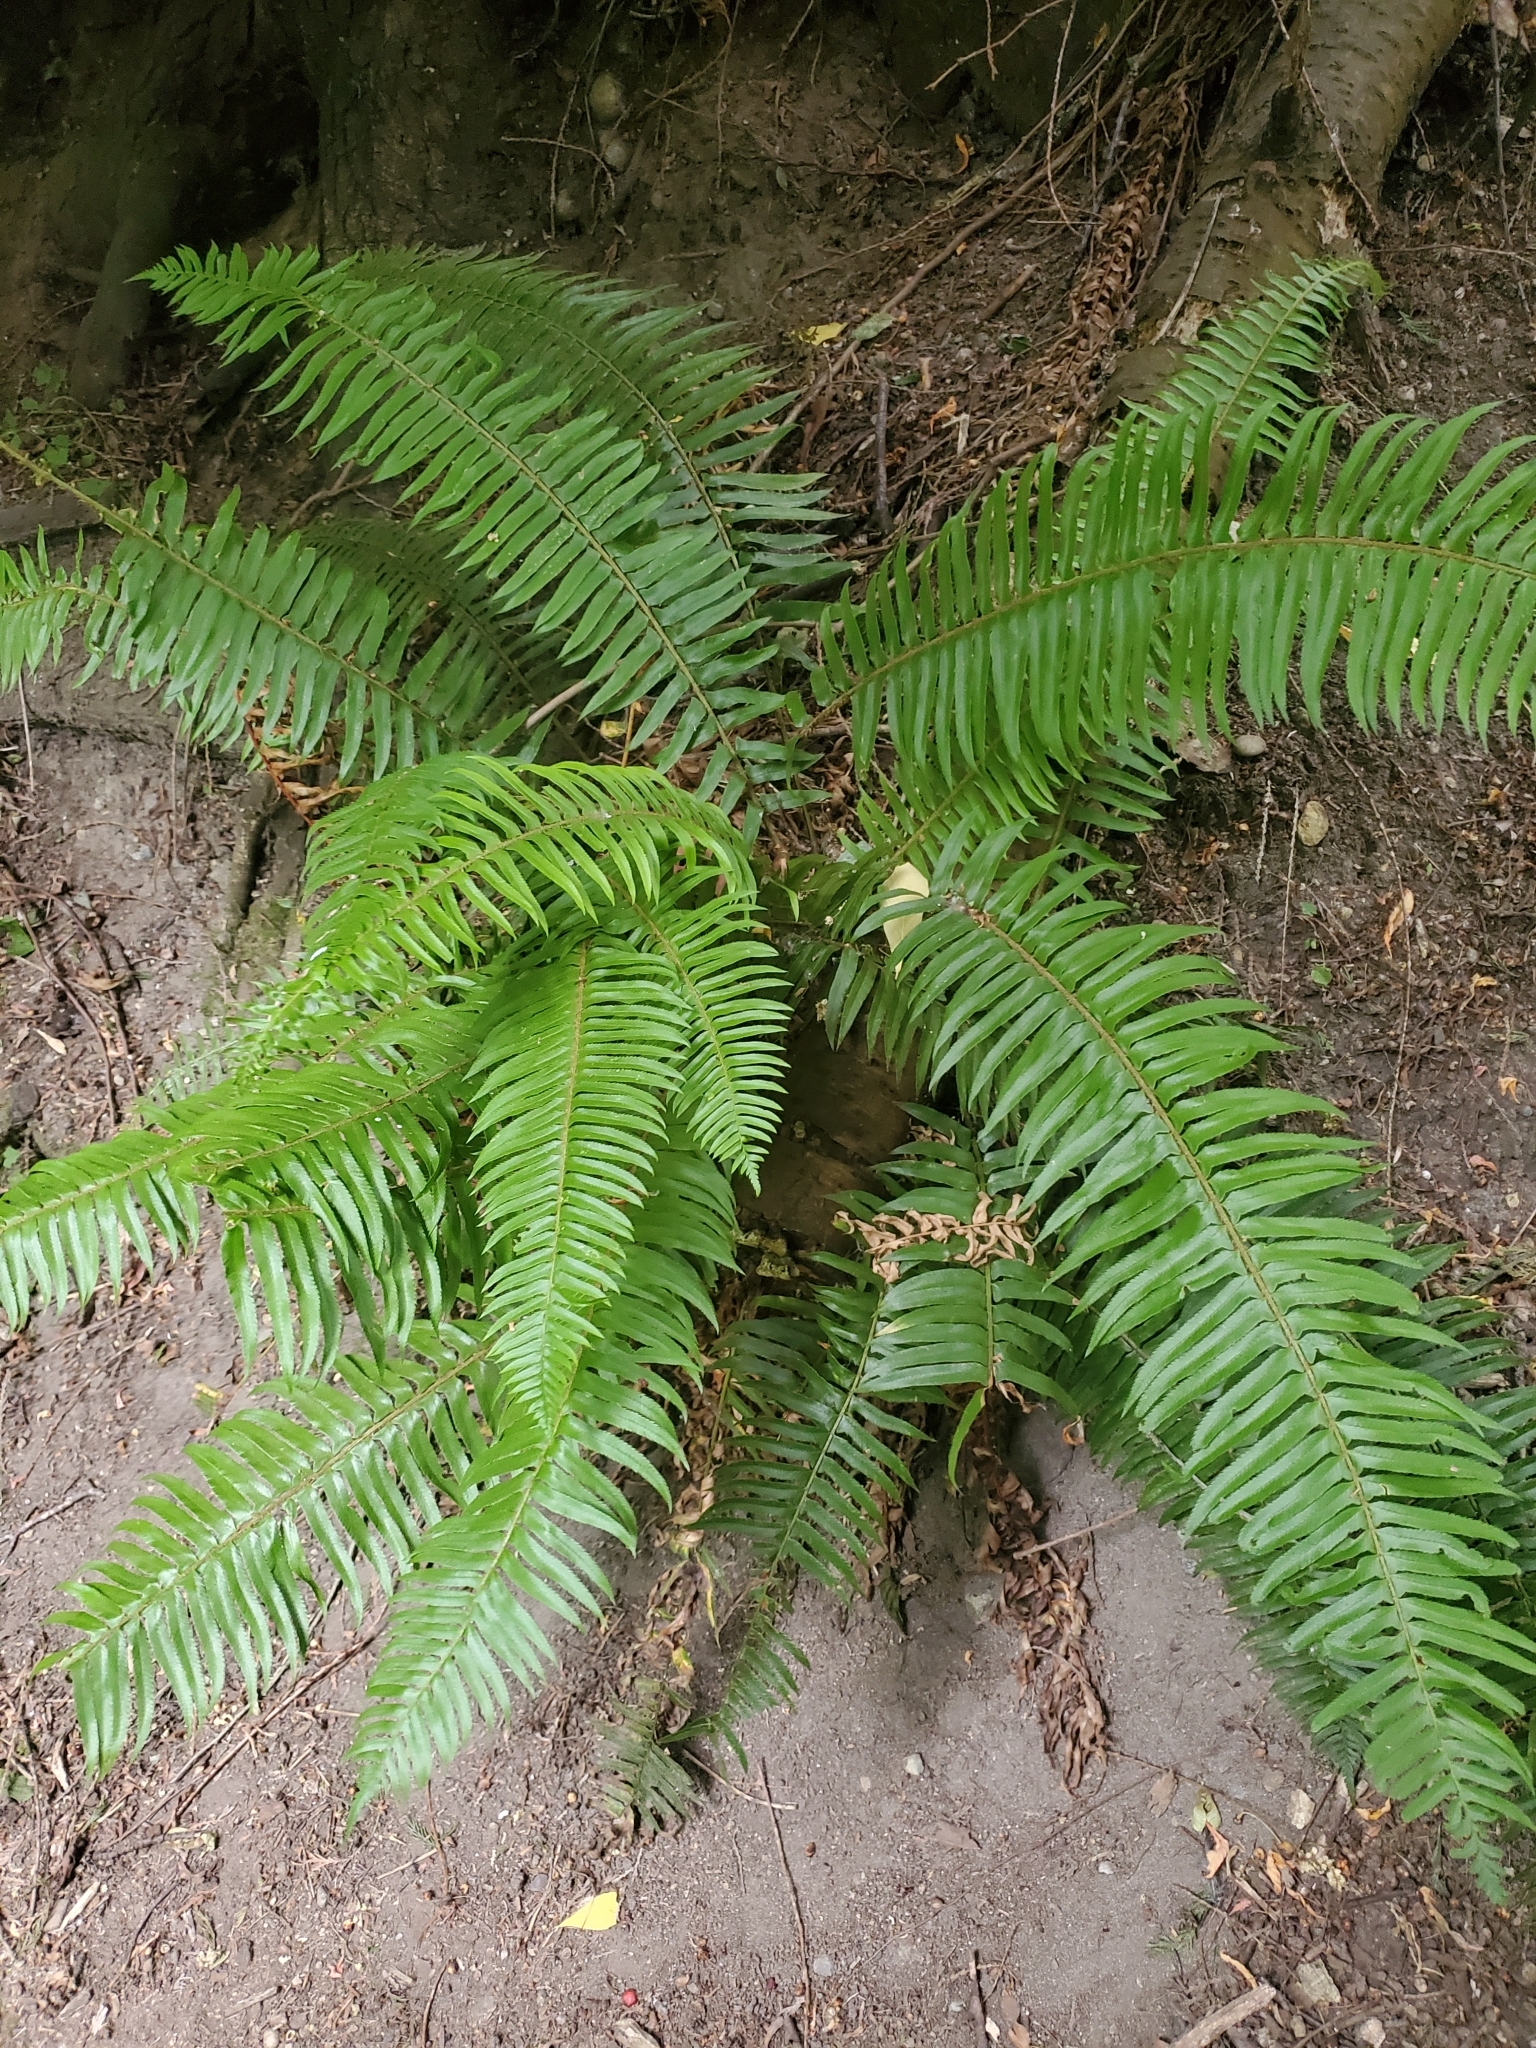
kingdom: Plantae
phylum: Tracheophyta
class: Polypodiopsida
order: Polypodiales
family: Dryopteridaceae
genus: Polystichum
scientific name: Polystichum munitum
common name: Western sword-fern
